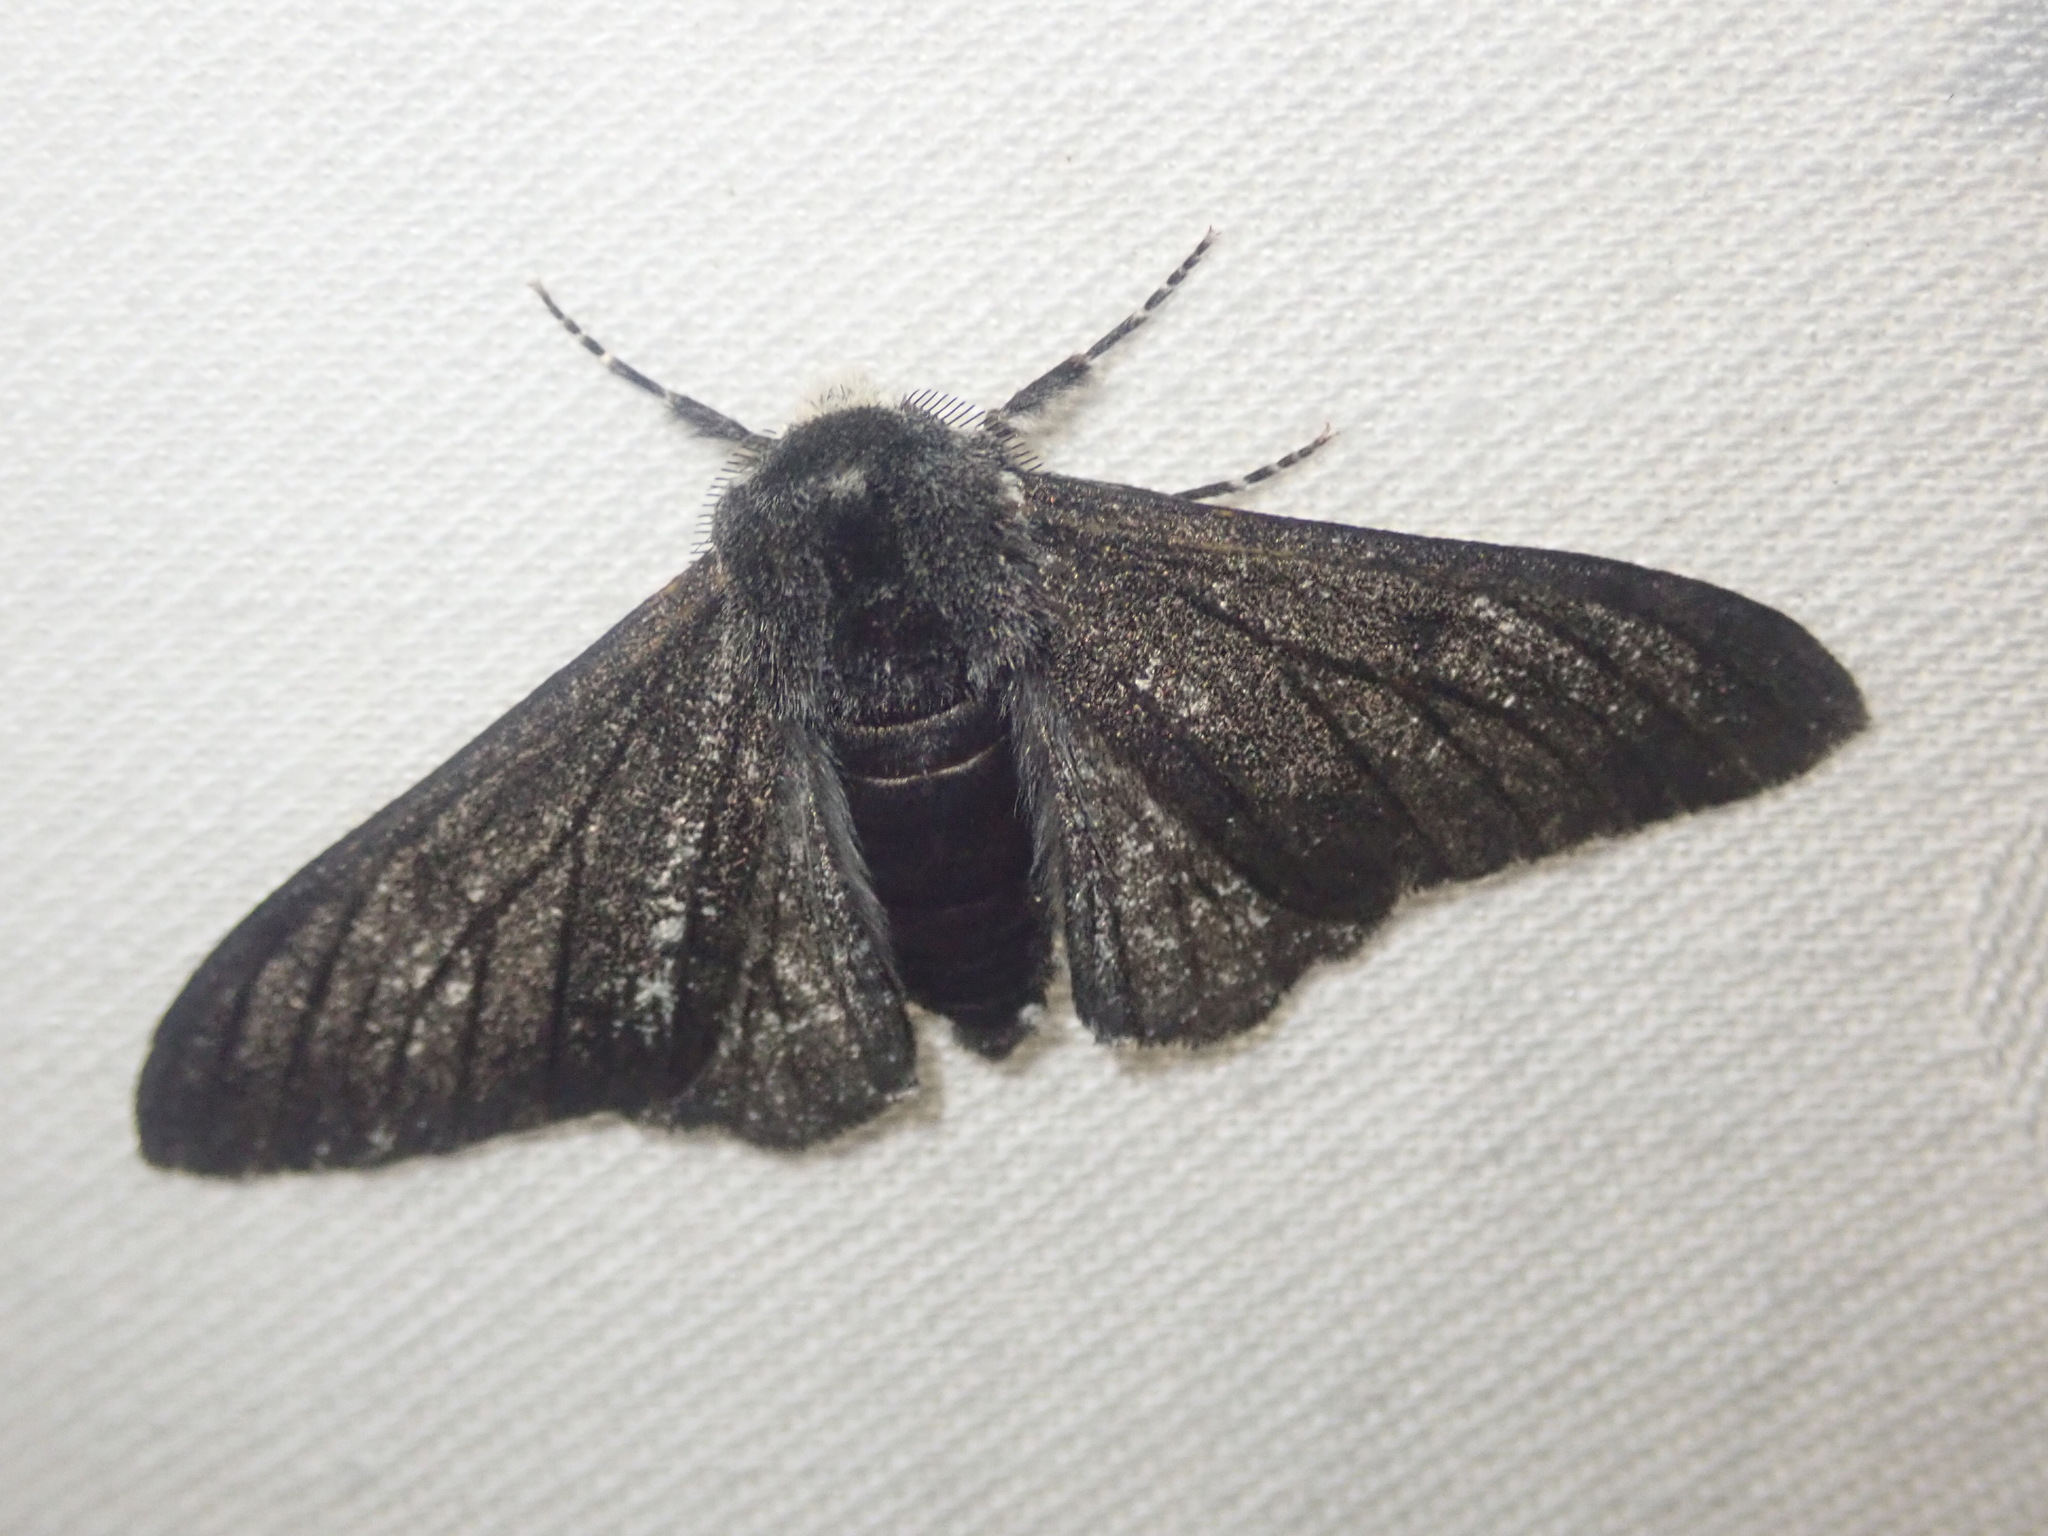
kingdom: Animalia
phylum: Arthropoda
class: Insecta
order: Lepidoptera
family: Geometridae
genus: Biston
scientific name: Biston betularia
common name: Peppered moth
